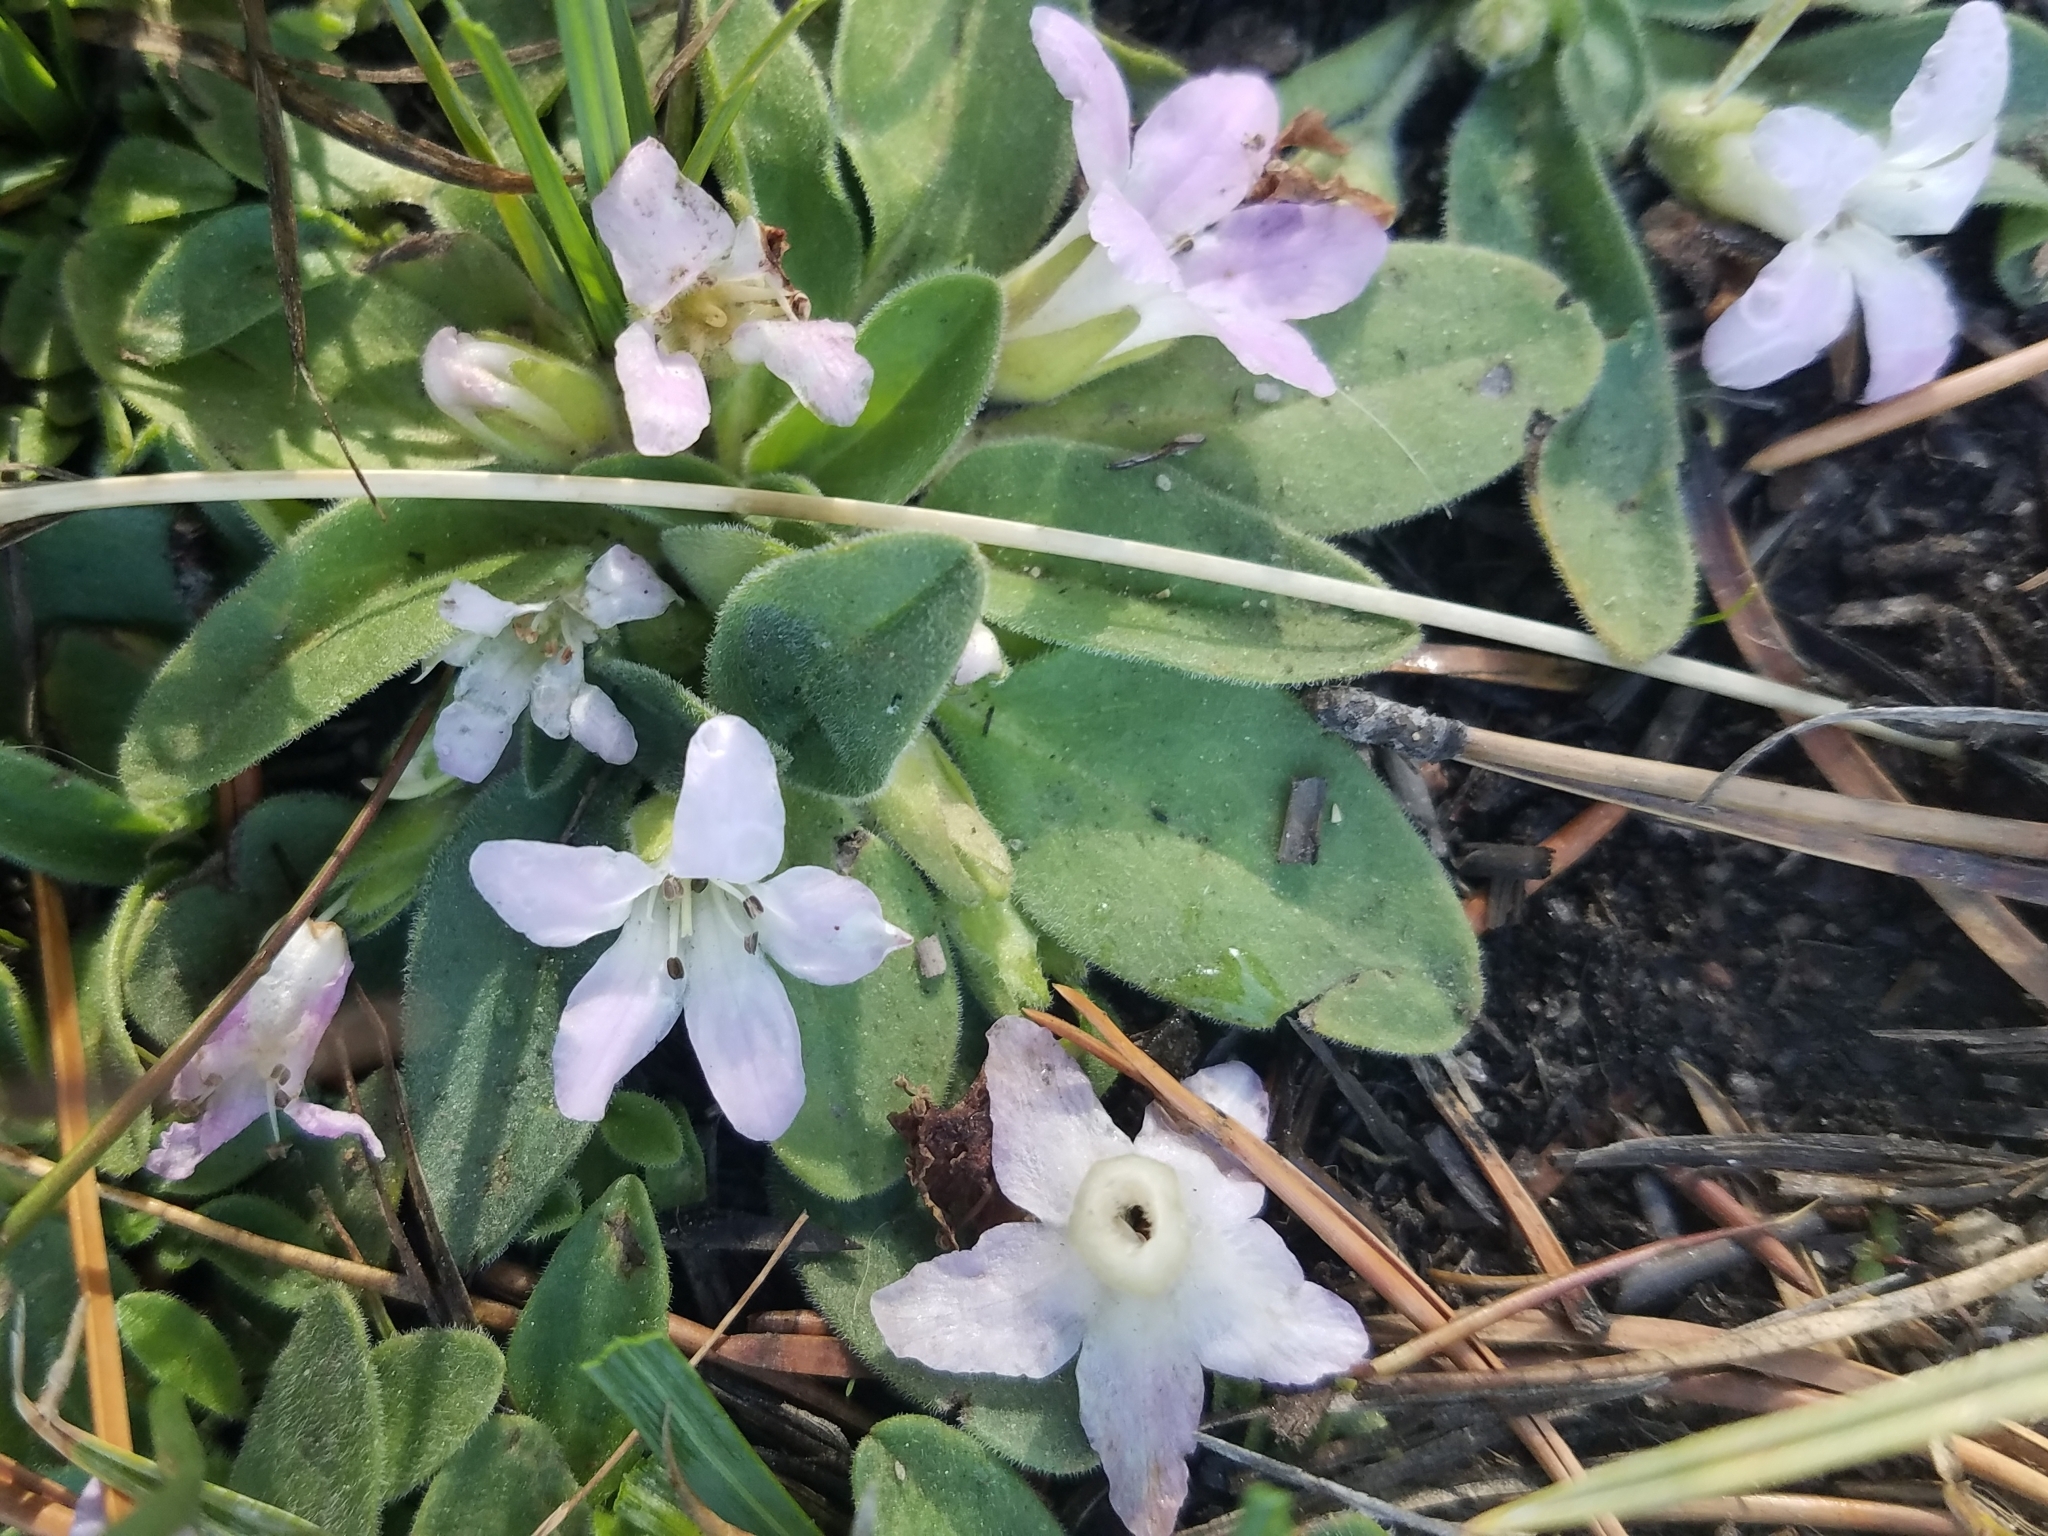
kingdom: Plantae
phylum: Tracheophyta
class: Magnoliopsida
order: Boraginales
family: Hydrophyllaceae
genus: Hesperochiron
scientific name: Hesperochiron californicus
